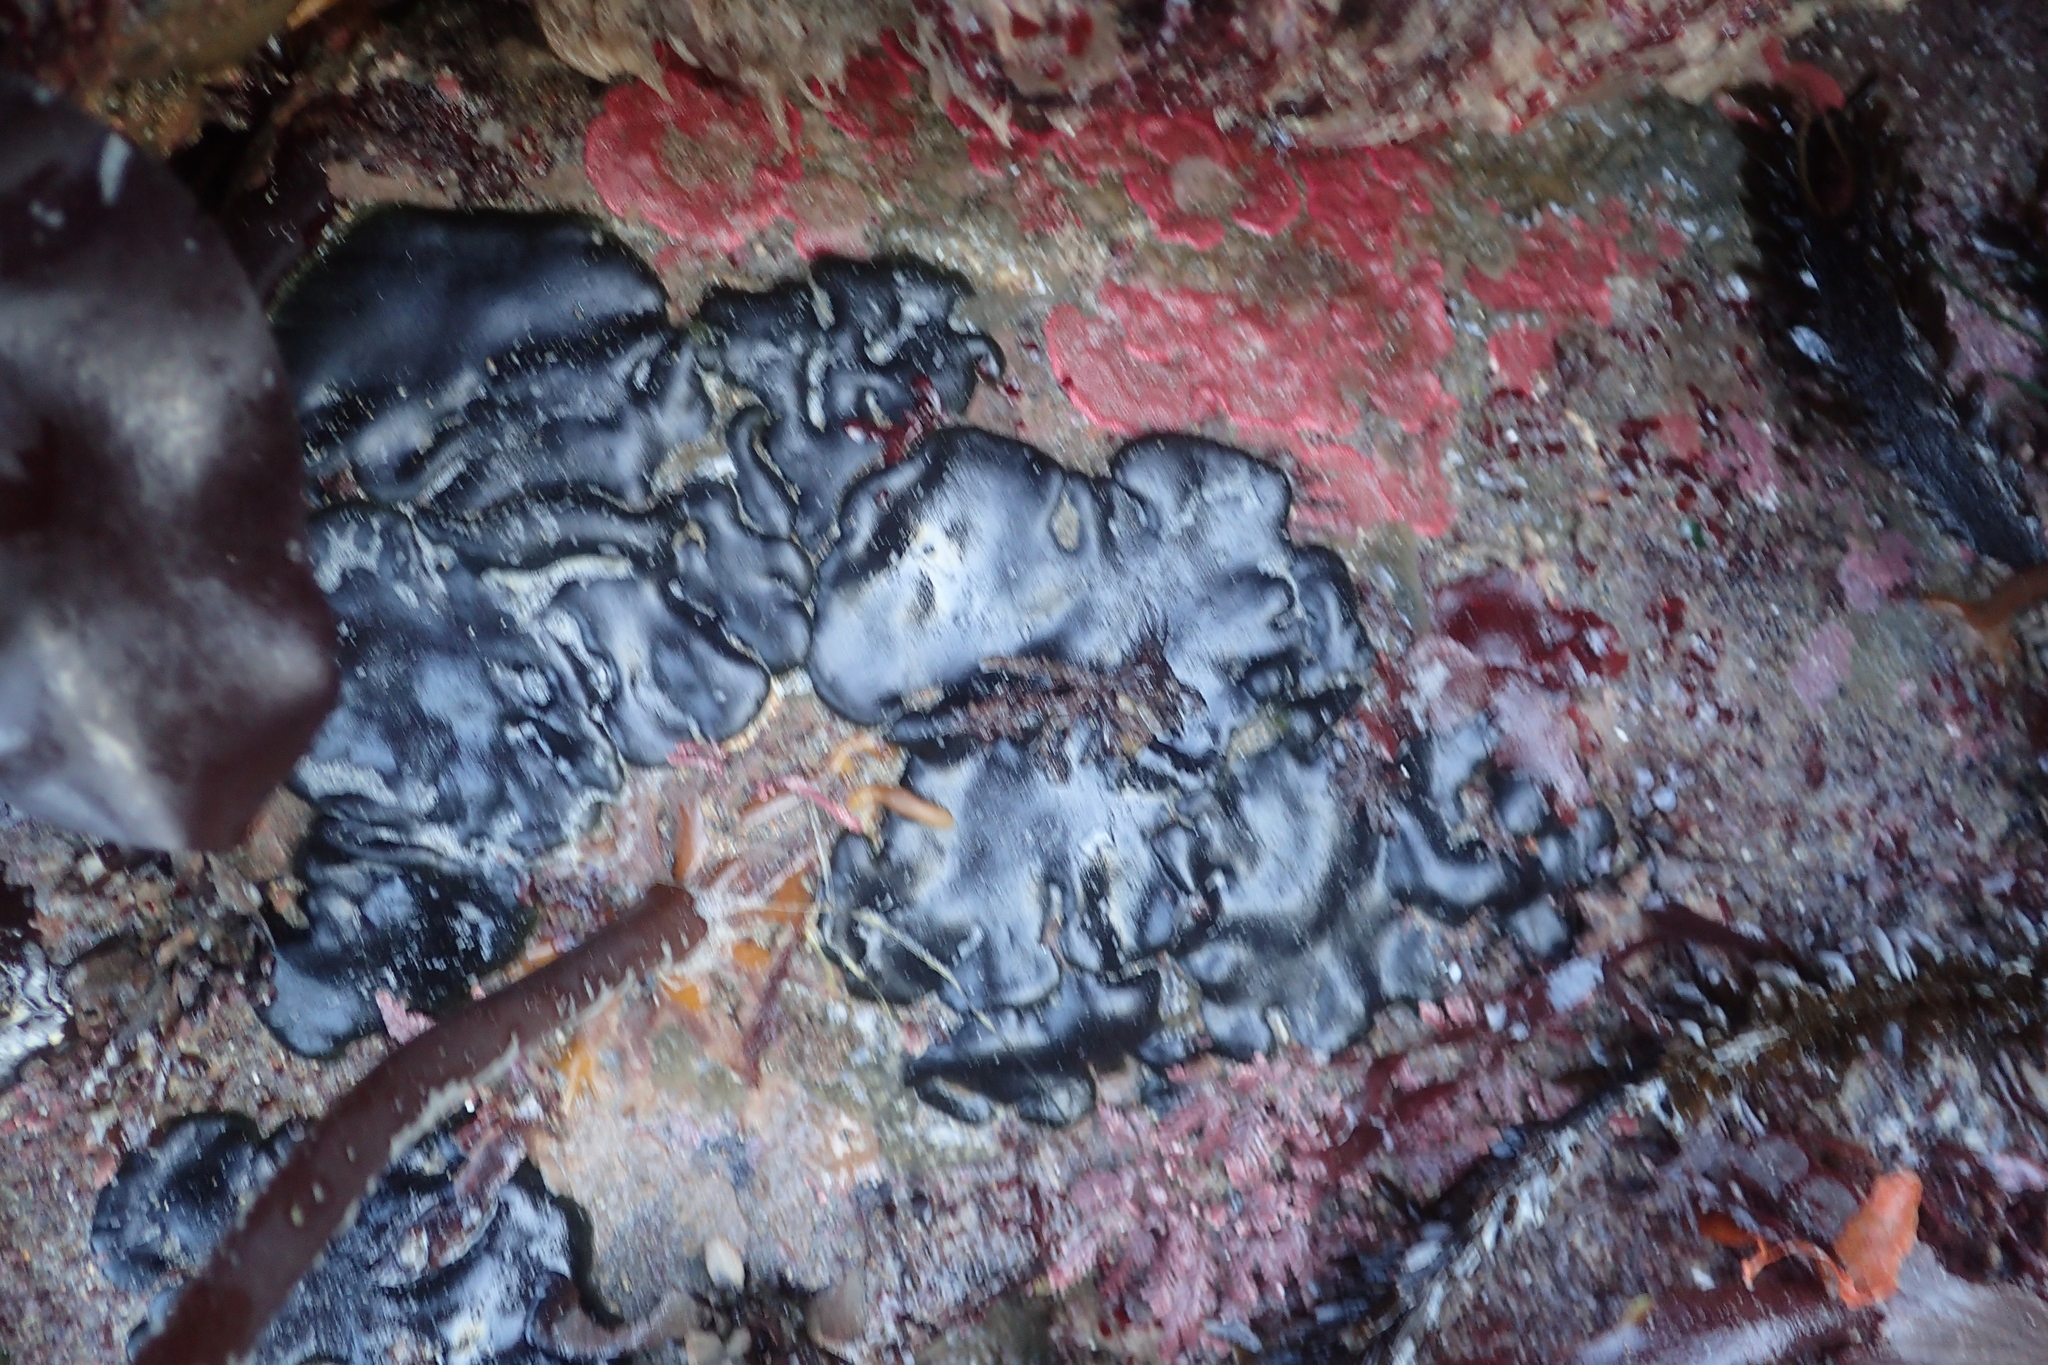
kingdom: Plantae
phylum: Chlorophyta
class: Ulvophyceae
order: Bryopsidales
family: Codiaceae
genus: Codium
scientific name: Codium setchellii
